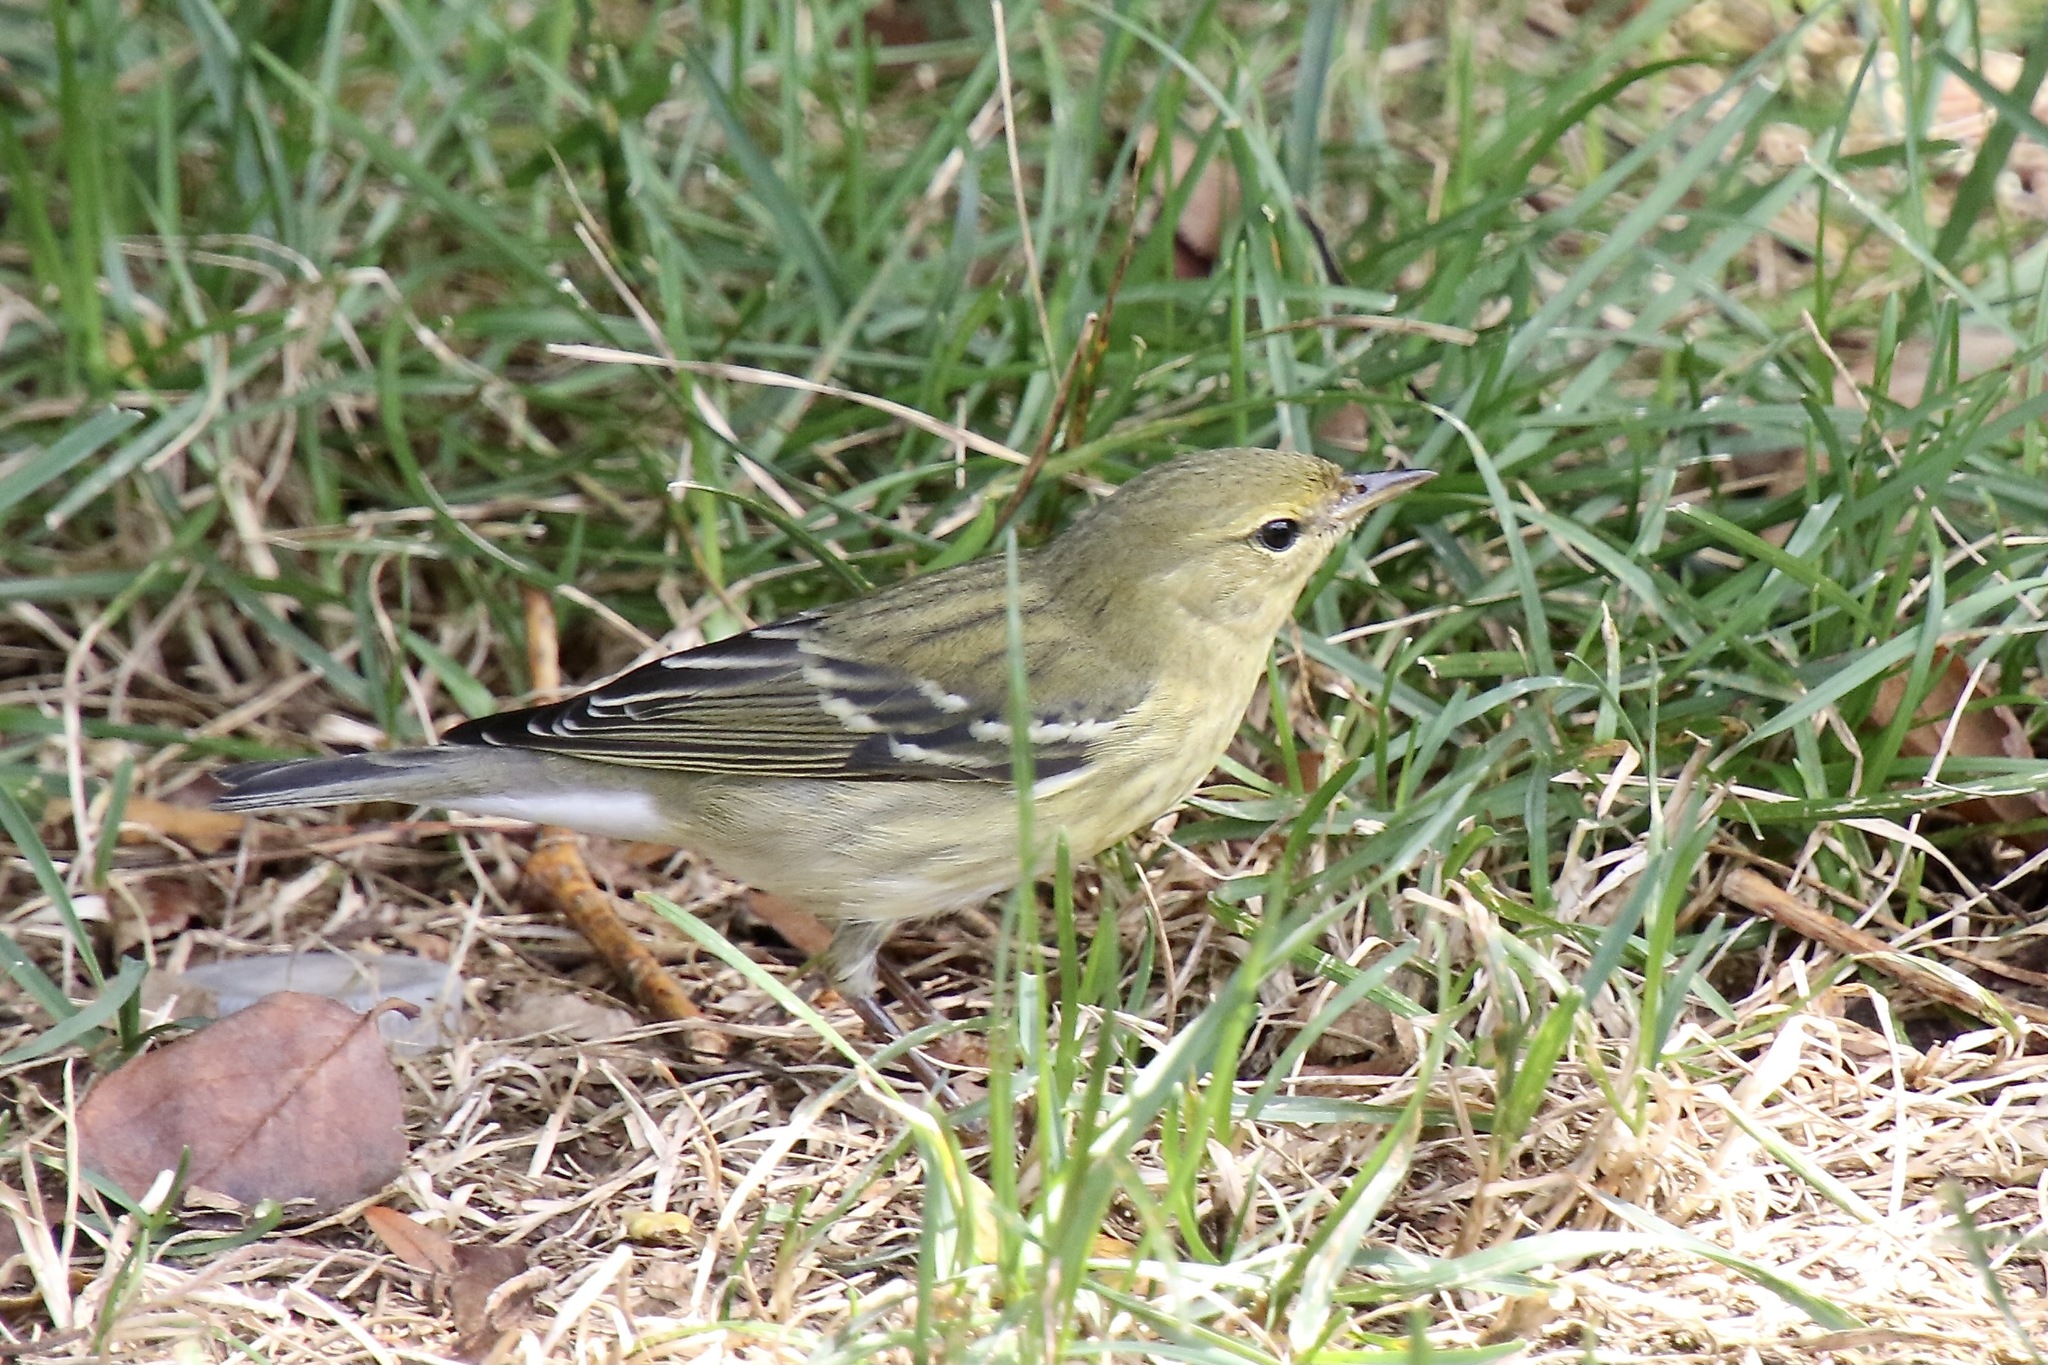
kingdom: Animalia
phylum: Chordata
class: Aves
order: Passeriformes
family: Parulidae
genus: Setophaga
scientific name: Setophaga striata
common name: Blackpoll warbler
